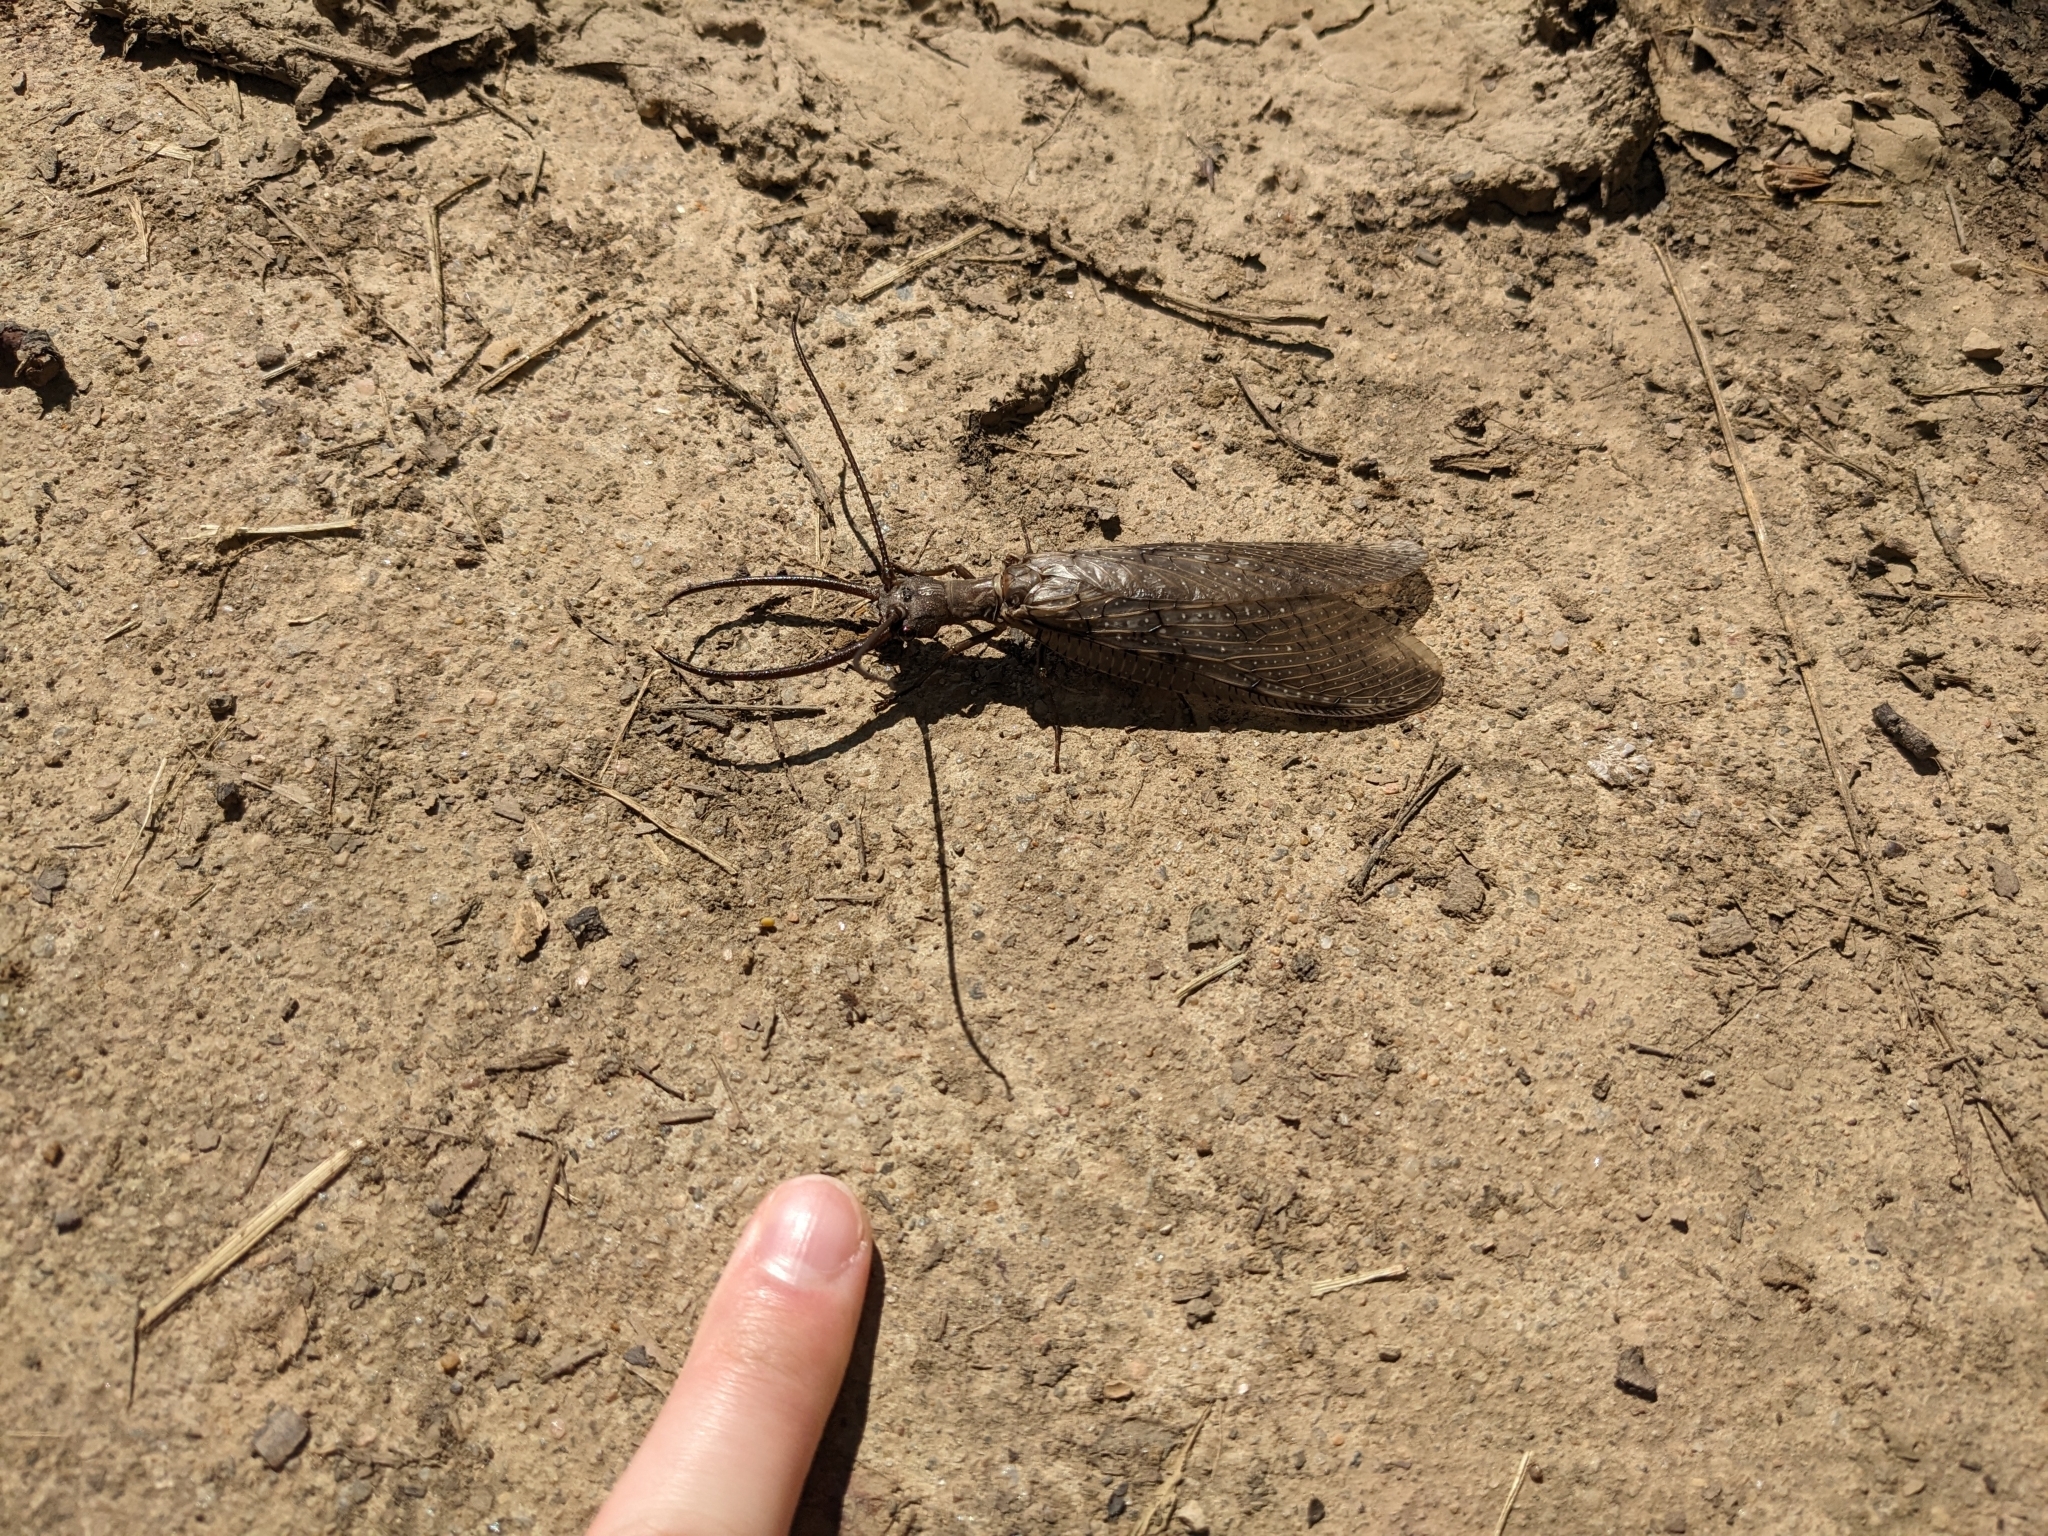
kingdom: Animalia
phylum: Arthropoda
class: Insecta
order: Megaloptera
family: Corydalidae
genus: Corydalus
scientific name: Corydalus cornutus
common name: Dobsonfly
